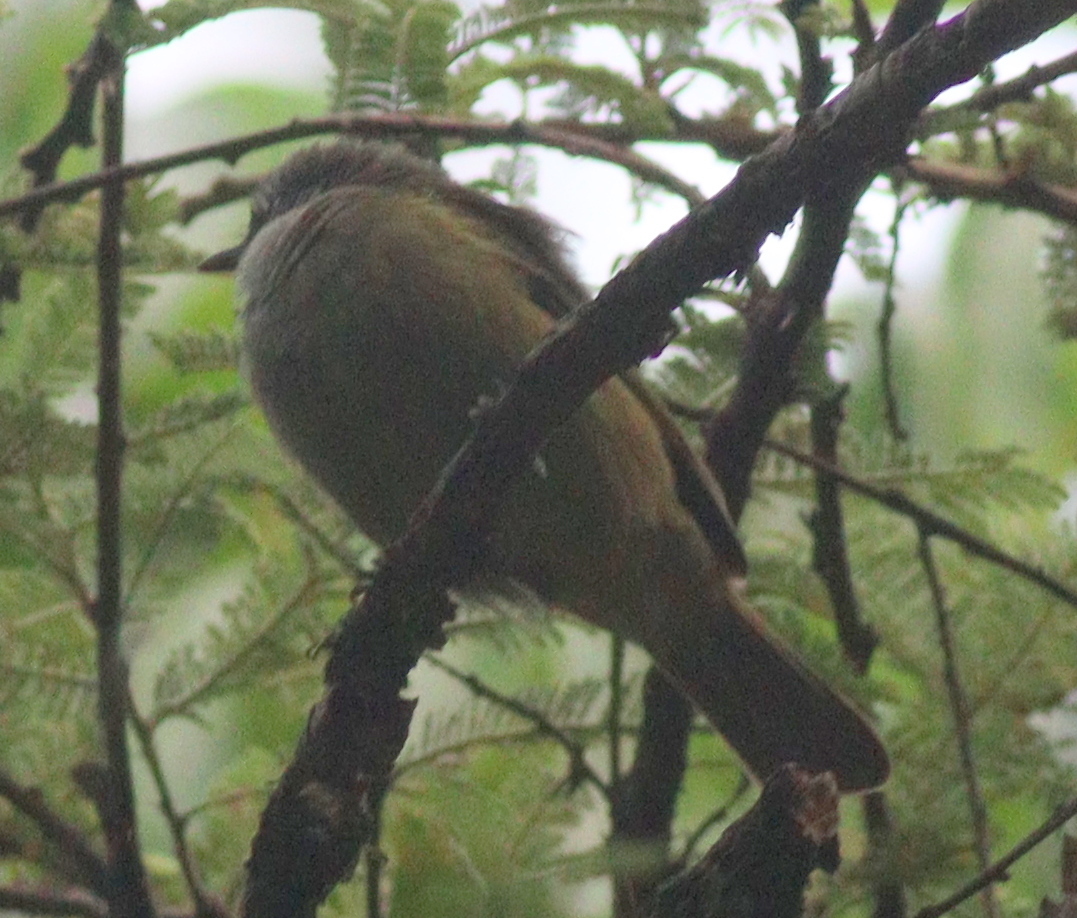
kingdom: Animalia
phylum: Chordata
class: Aves
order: Passeriformes
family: Pycnonotidae
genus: Arizelocichla
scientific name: Arizelocichla masukuensis
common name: Shelley's greenbul
